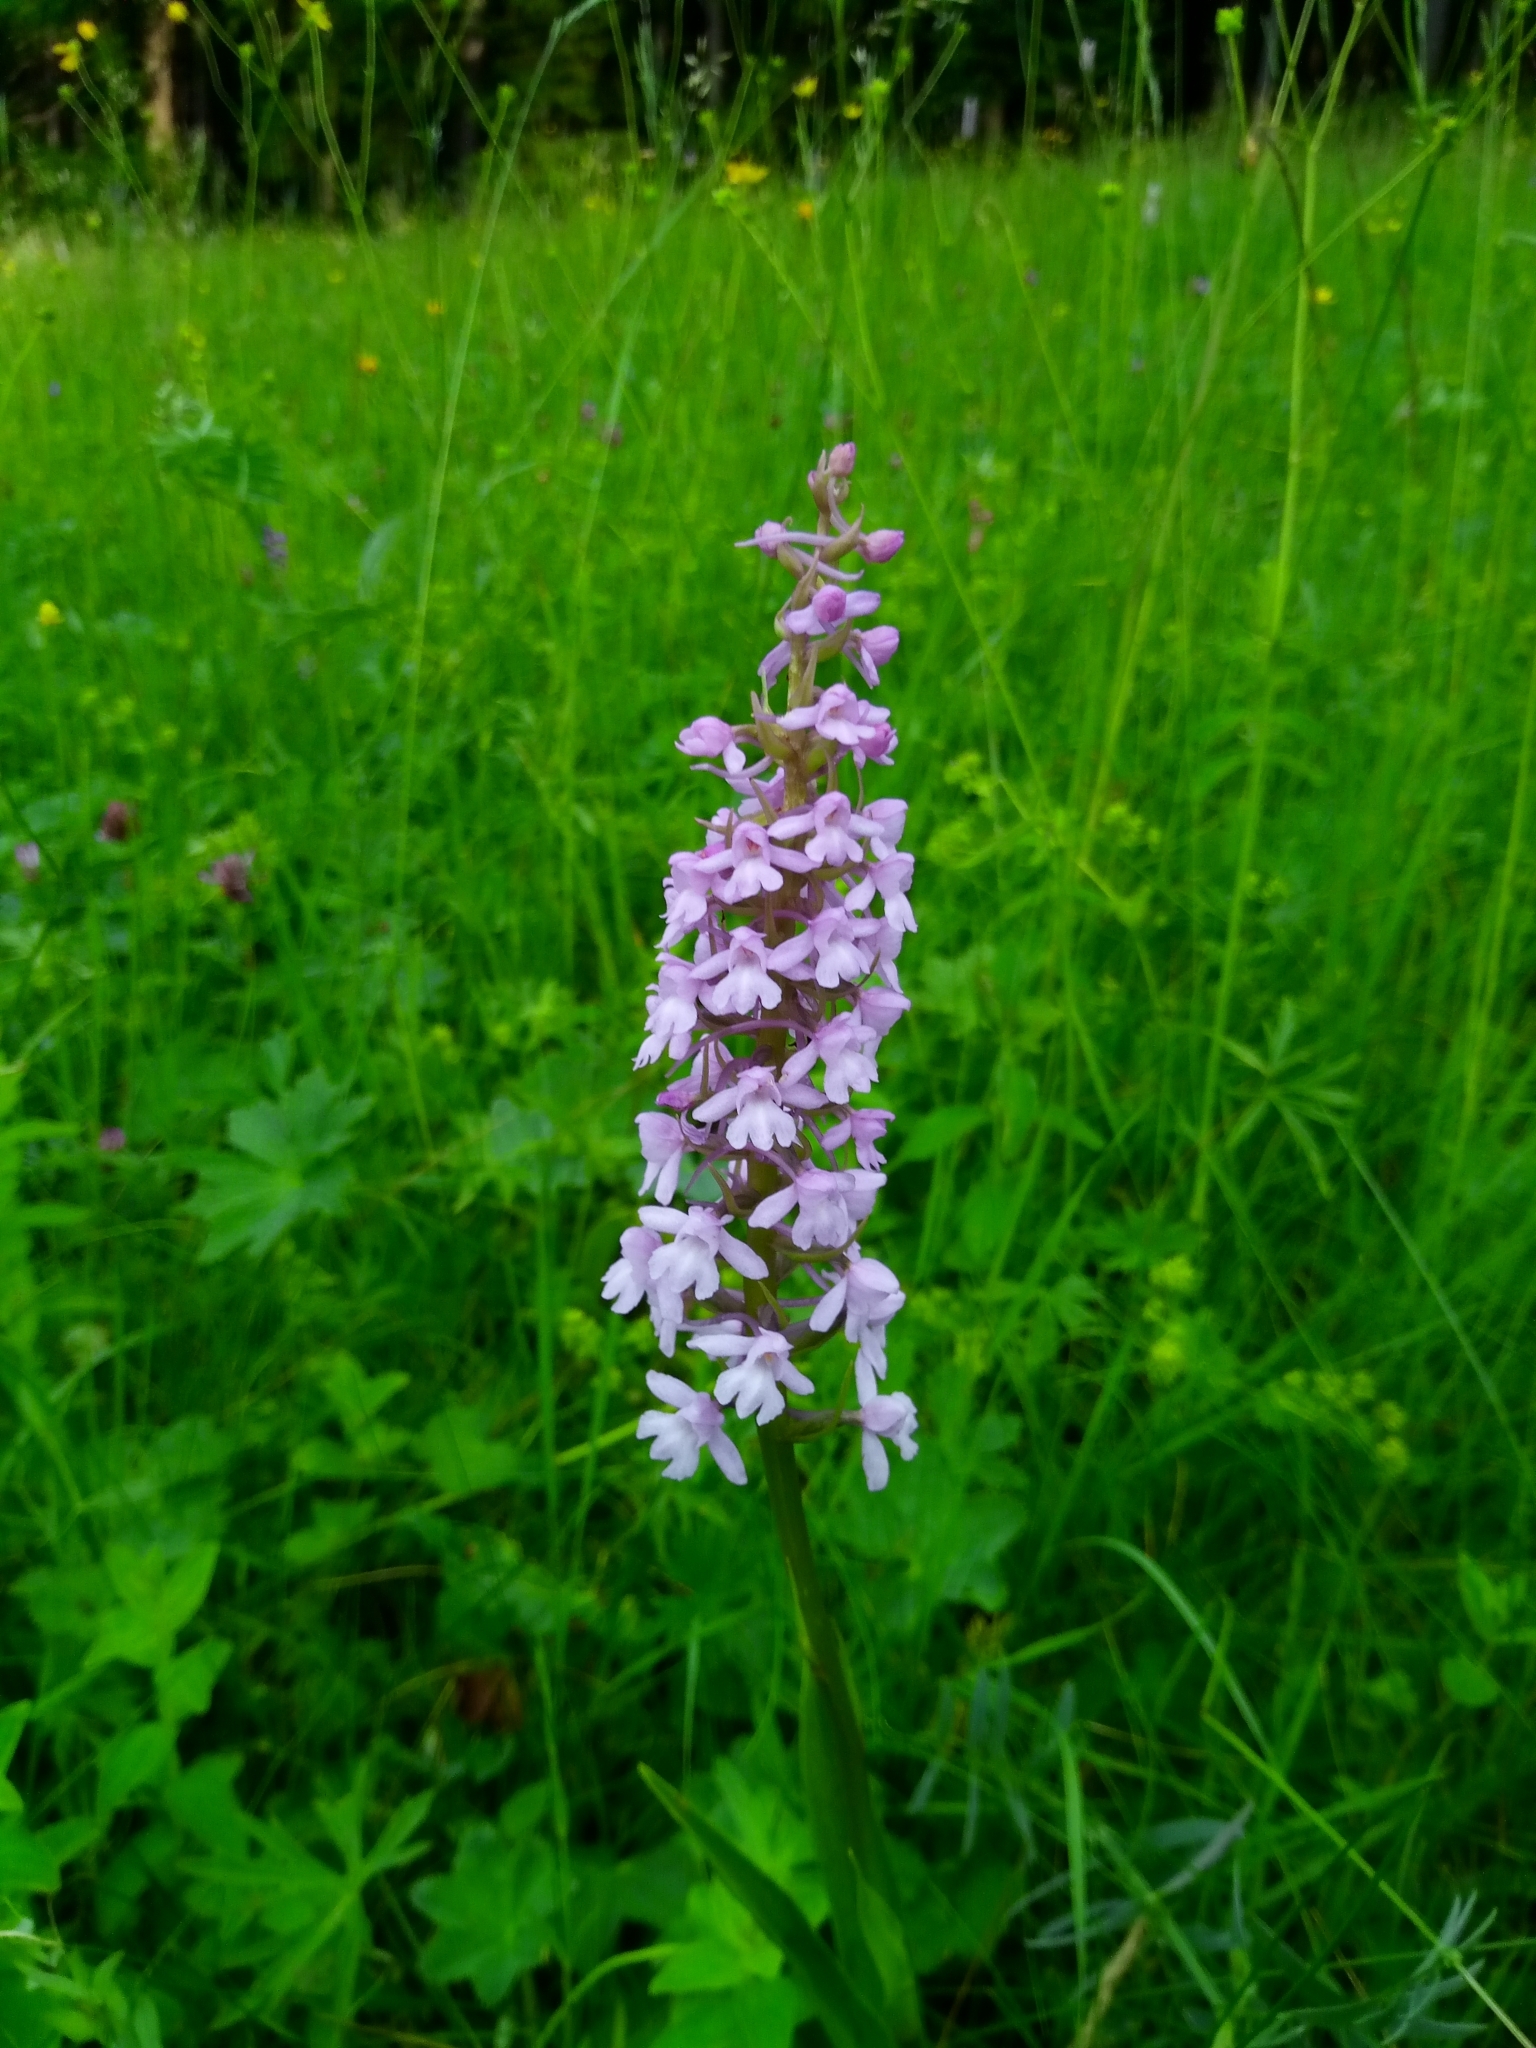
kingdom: Plantae
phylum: Tracheophyta
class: Liliopsida
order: Asparagales
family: Orchidaceae
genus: Gymnadenia
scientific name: Gymnadenia conopsea
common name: Fragrant orchid
